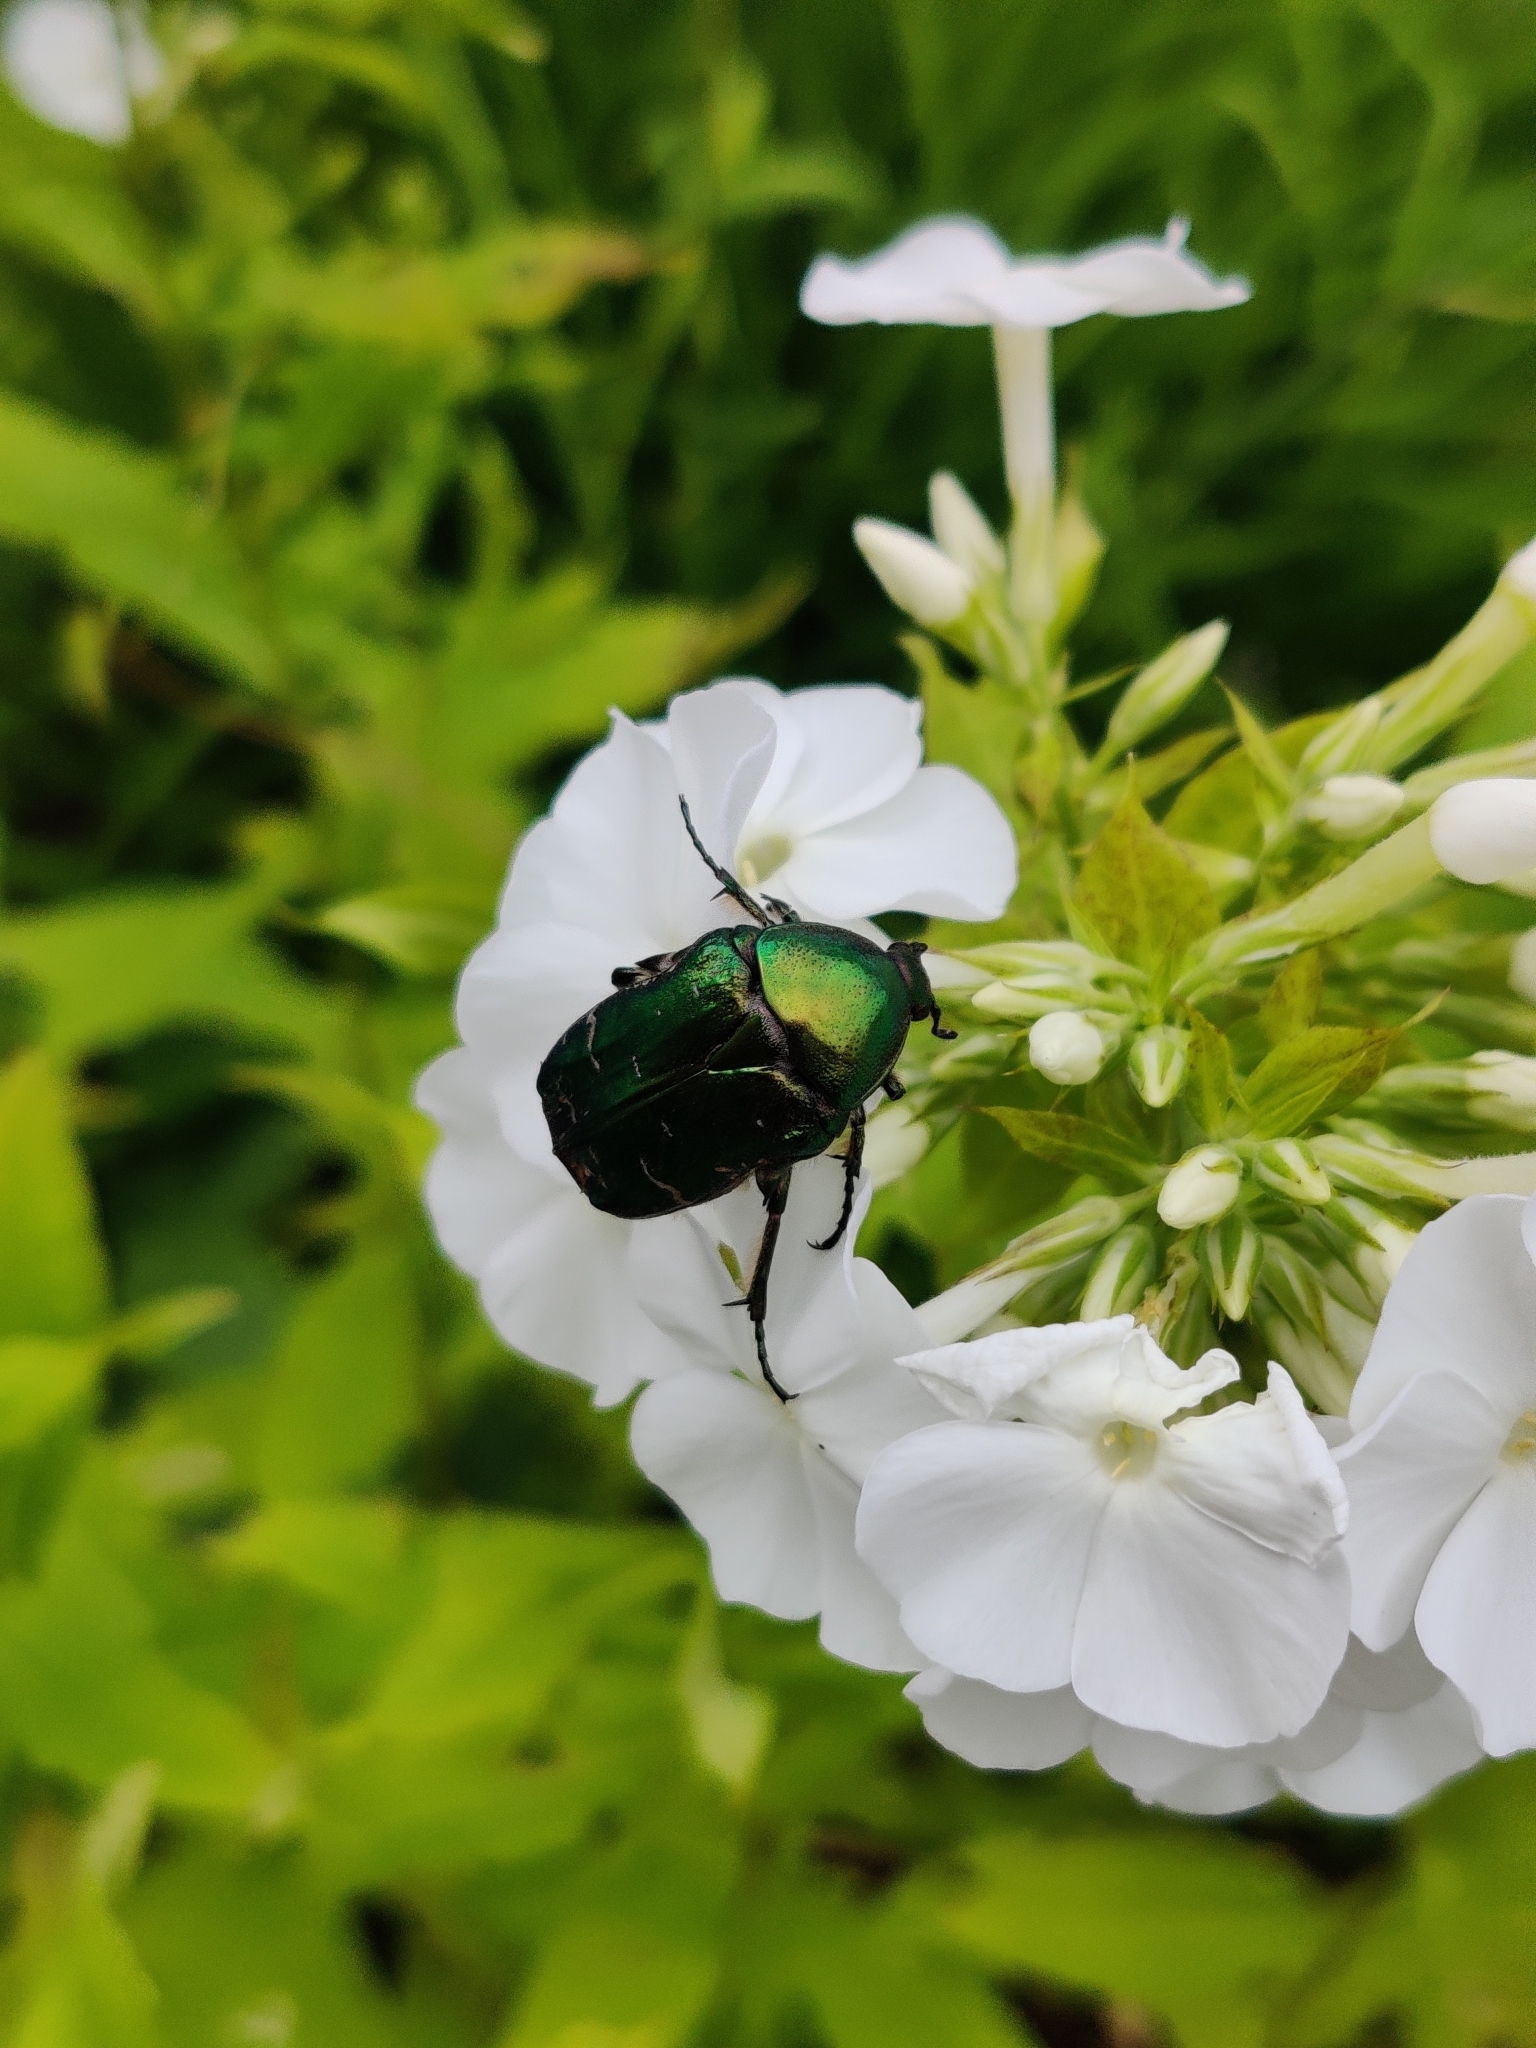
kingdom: Animalia
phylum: Arthropoda
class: Insecta
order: Coleoptera
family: Scarabaeidae
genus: Cetonia
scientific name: Cetonia aurata
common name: Rose chafer
